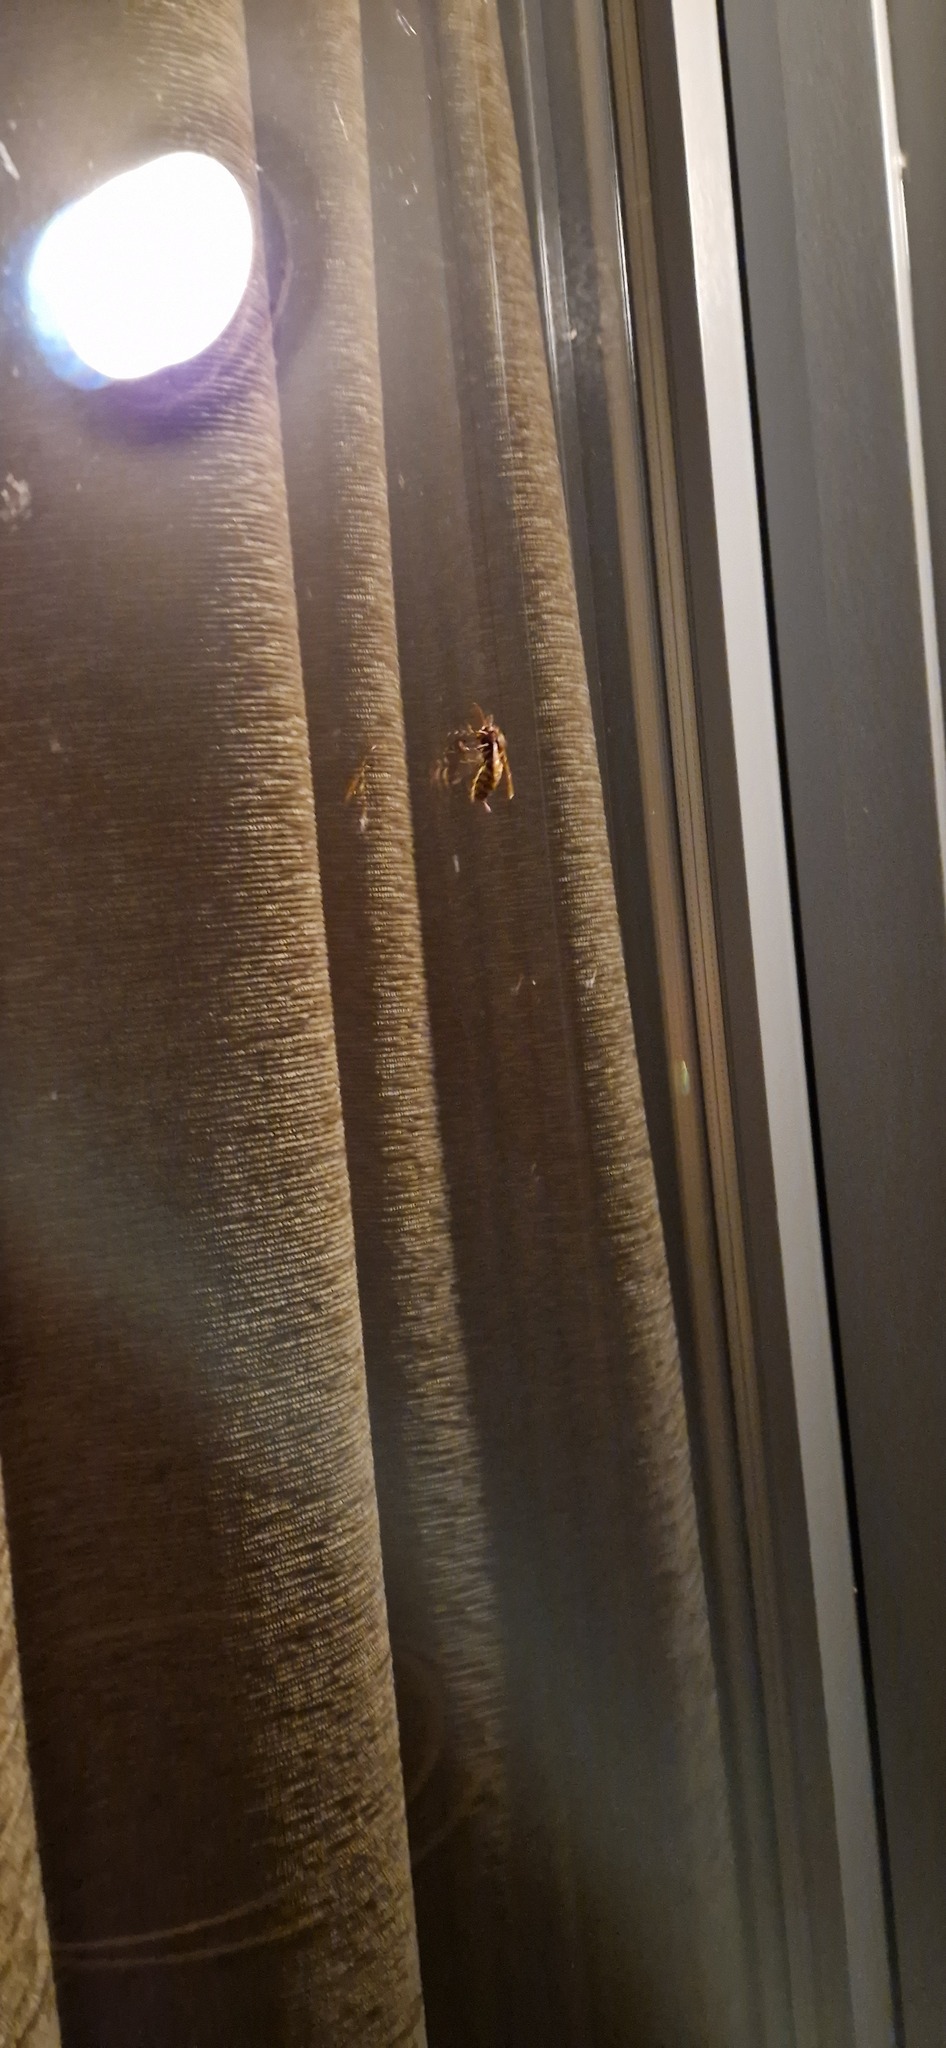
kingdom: Animalia
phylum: Arthropoda
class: Insecta
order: Hymenoptera
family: Vespidae
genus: Vespa
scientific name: Vespa crabro
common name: Hornet
